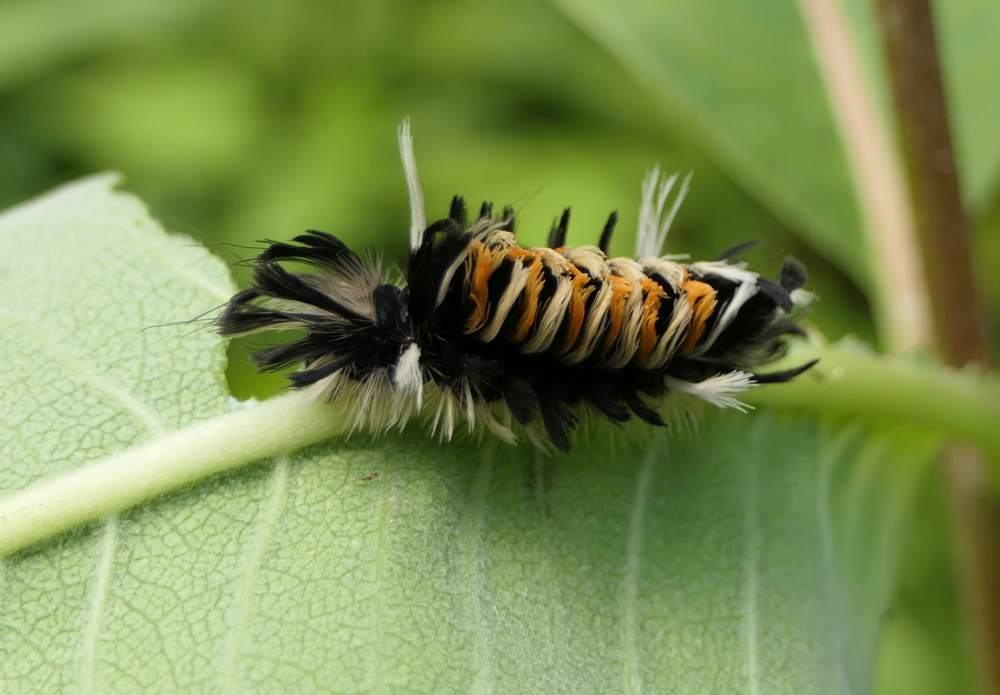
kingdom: Animalia
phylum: Arthropoda
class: Insecta
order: Lepidoptera
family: Erebidae
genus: Euchaetes
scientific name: Euchaetes egle
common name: Milkweed tussock moth
